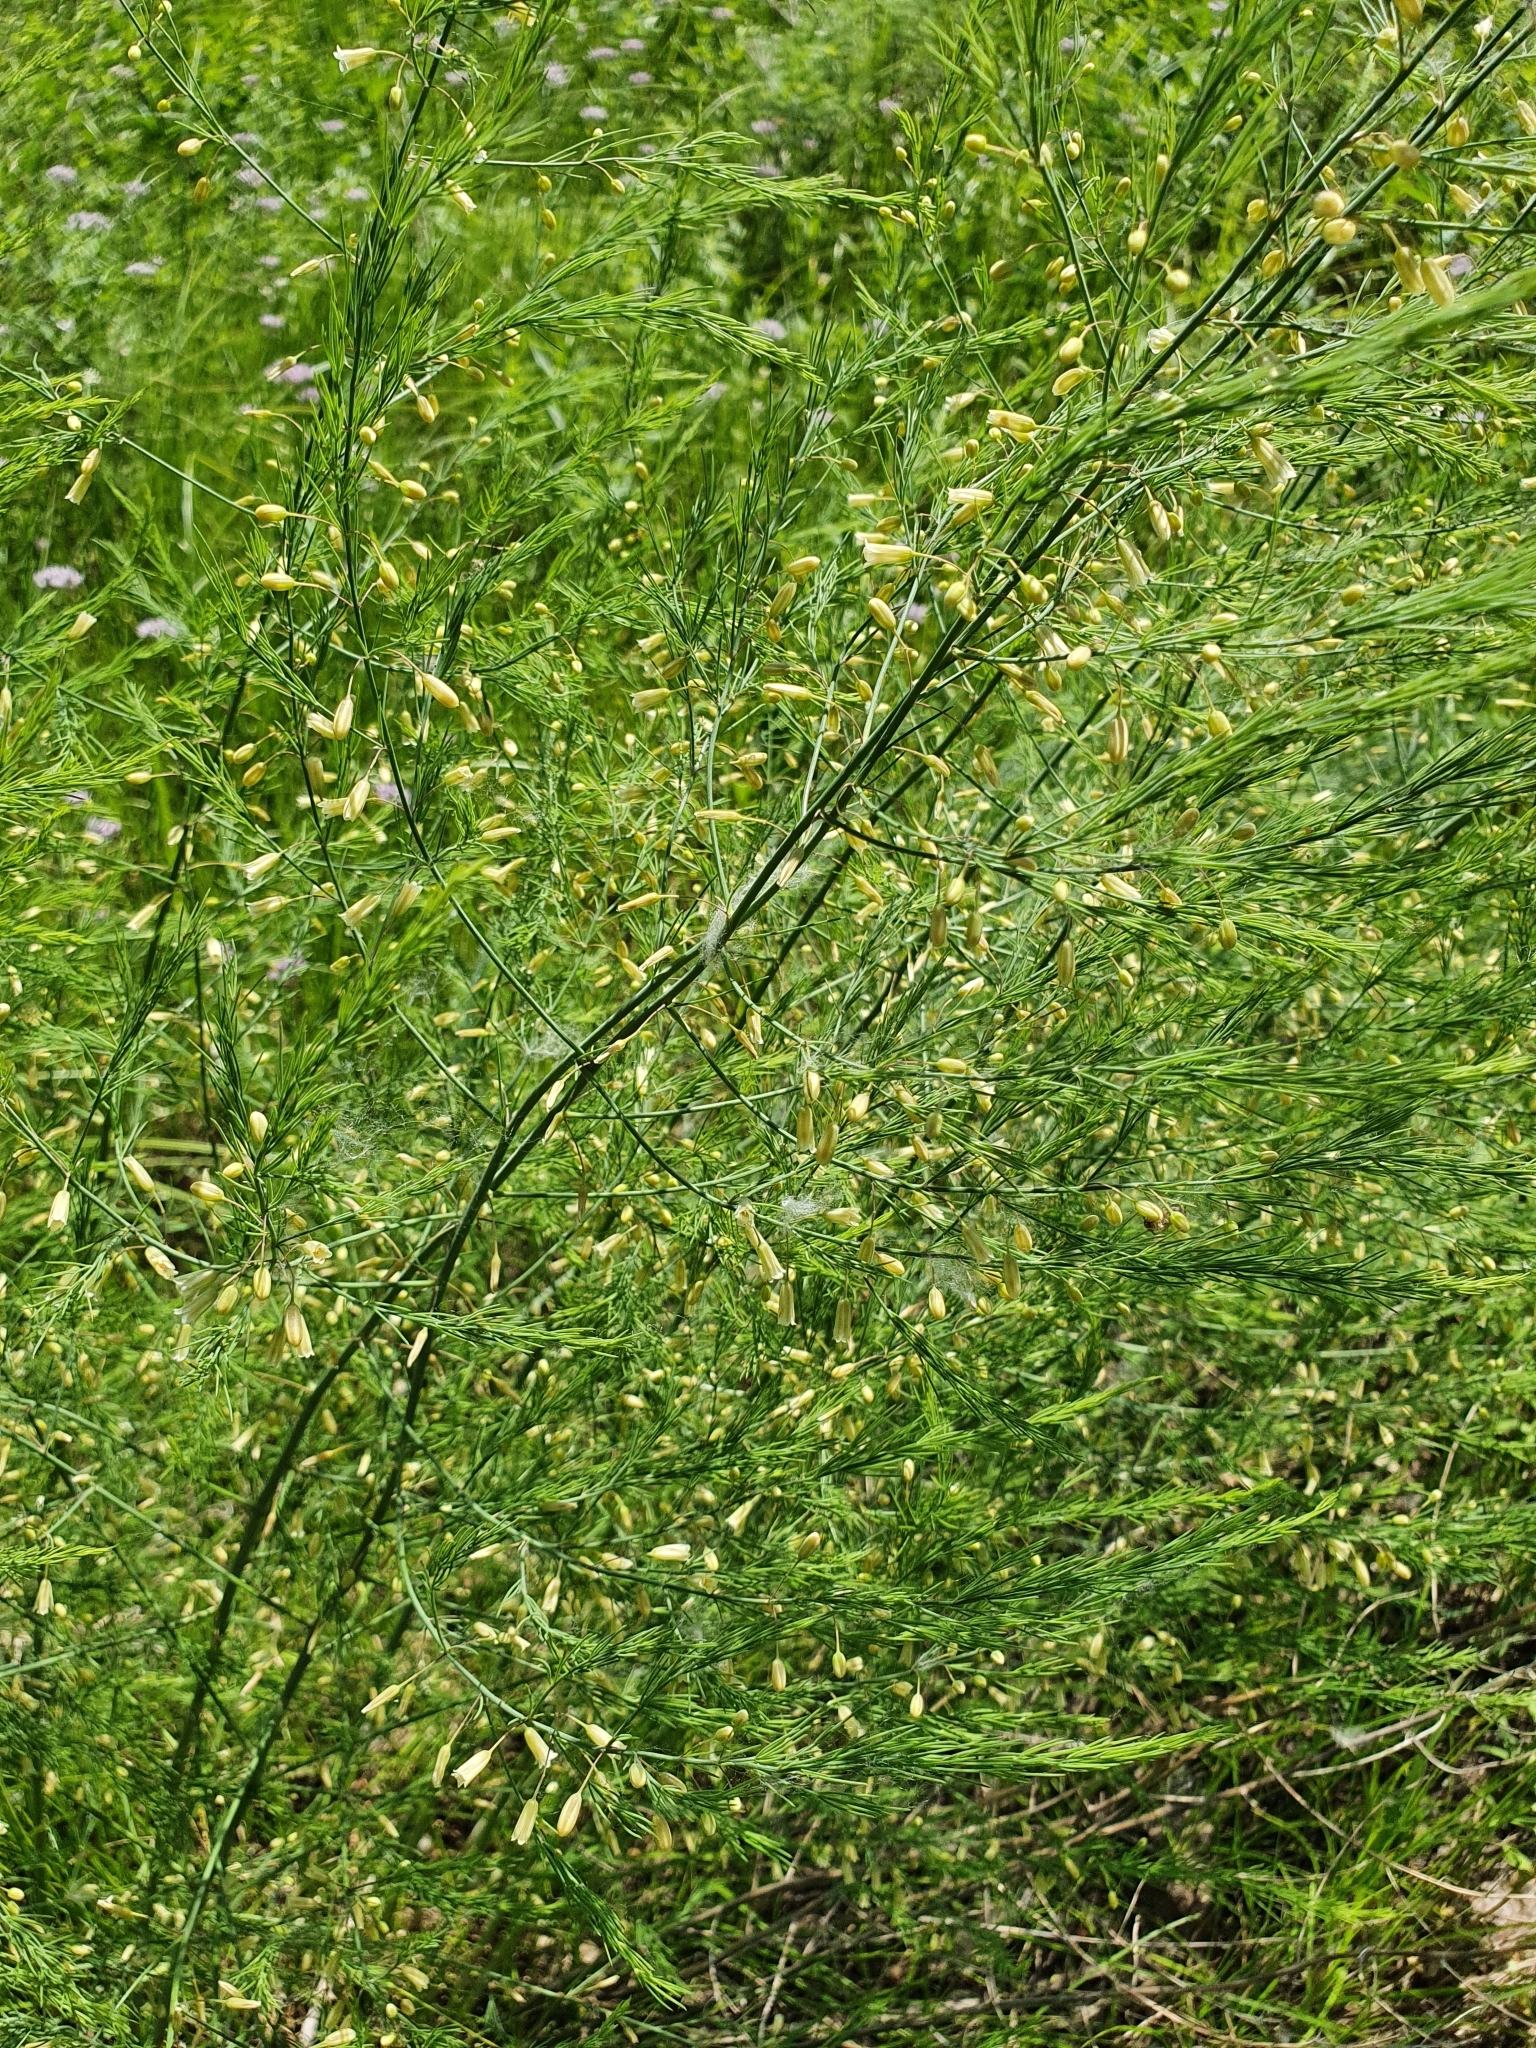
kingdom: Plantae
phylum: Tracheophyta
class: Liliopsida
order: Asparagales
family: Asparagaceae
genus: Asparagus
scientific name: Asparagus officinalis
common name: Garden asparagus
